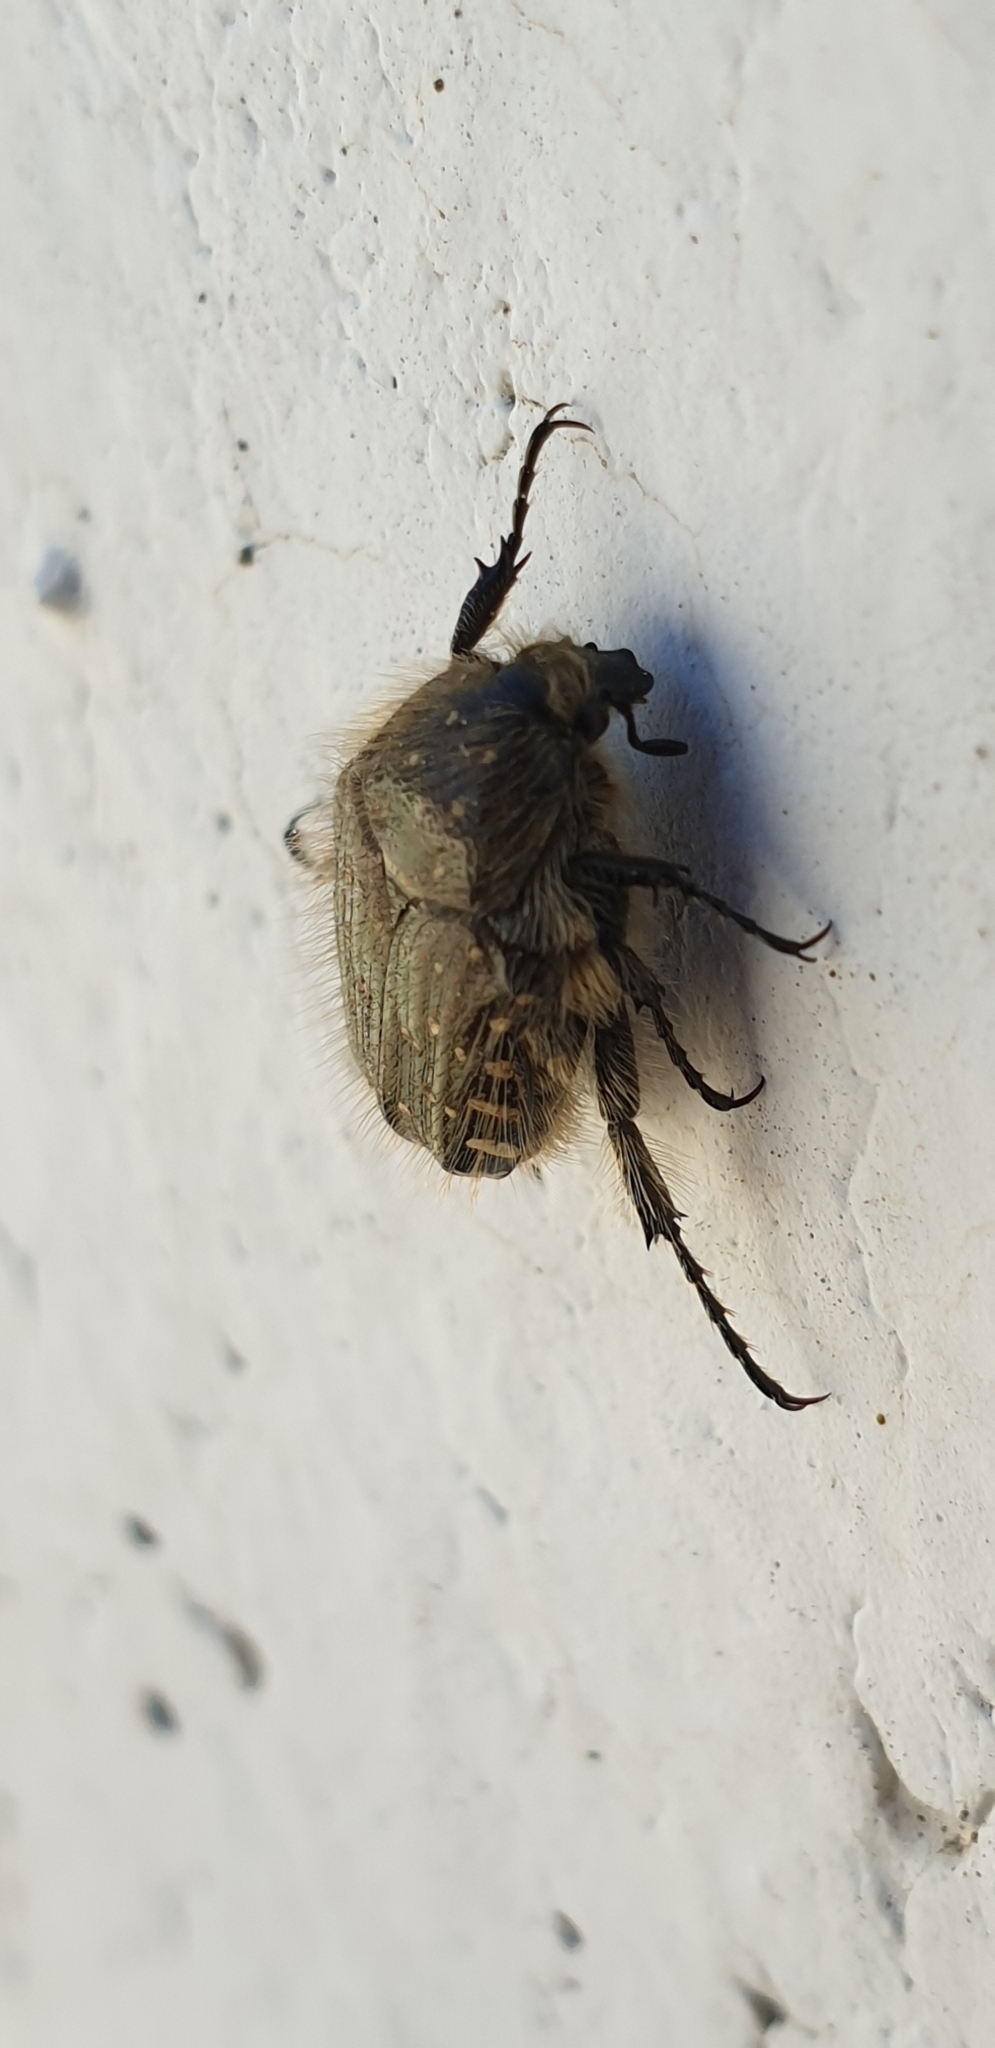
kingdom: Animalia
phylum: Arthropoda
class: Insecta
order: Coleoptera
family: Scarabaeidae
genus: Oxythyrea
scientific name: Oxythyrea funesta
